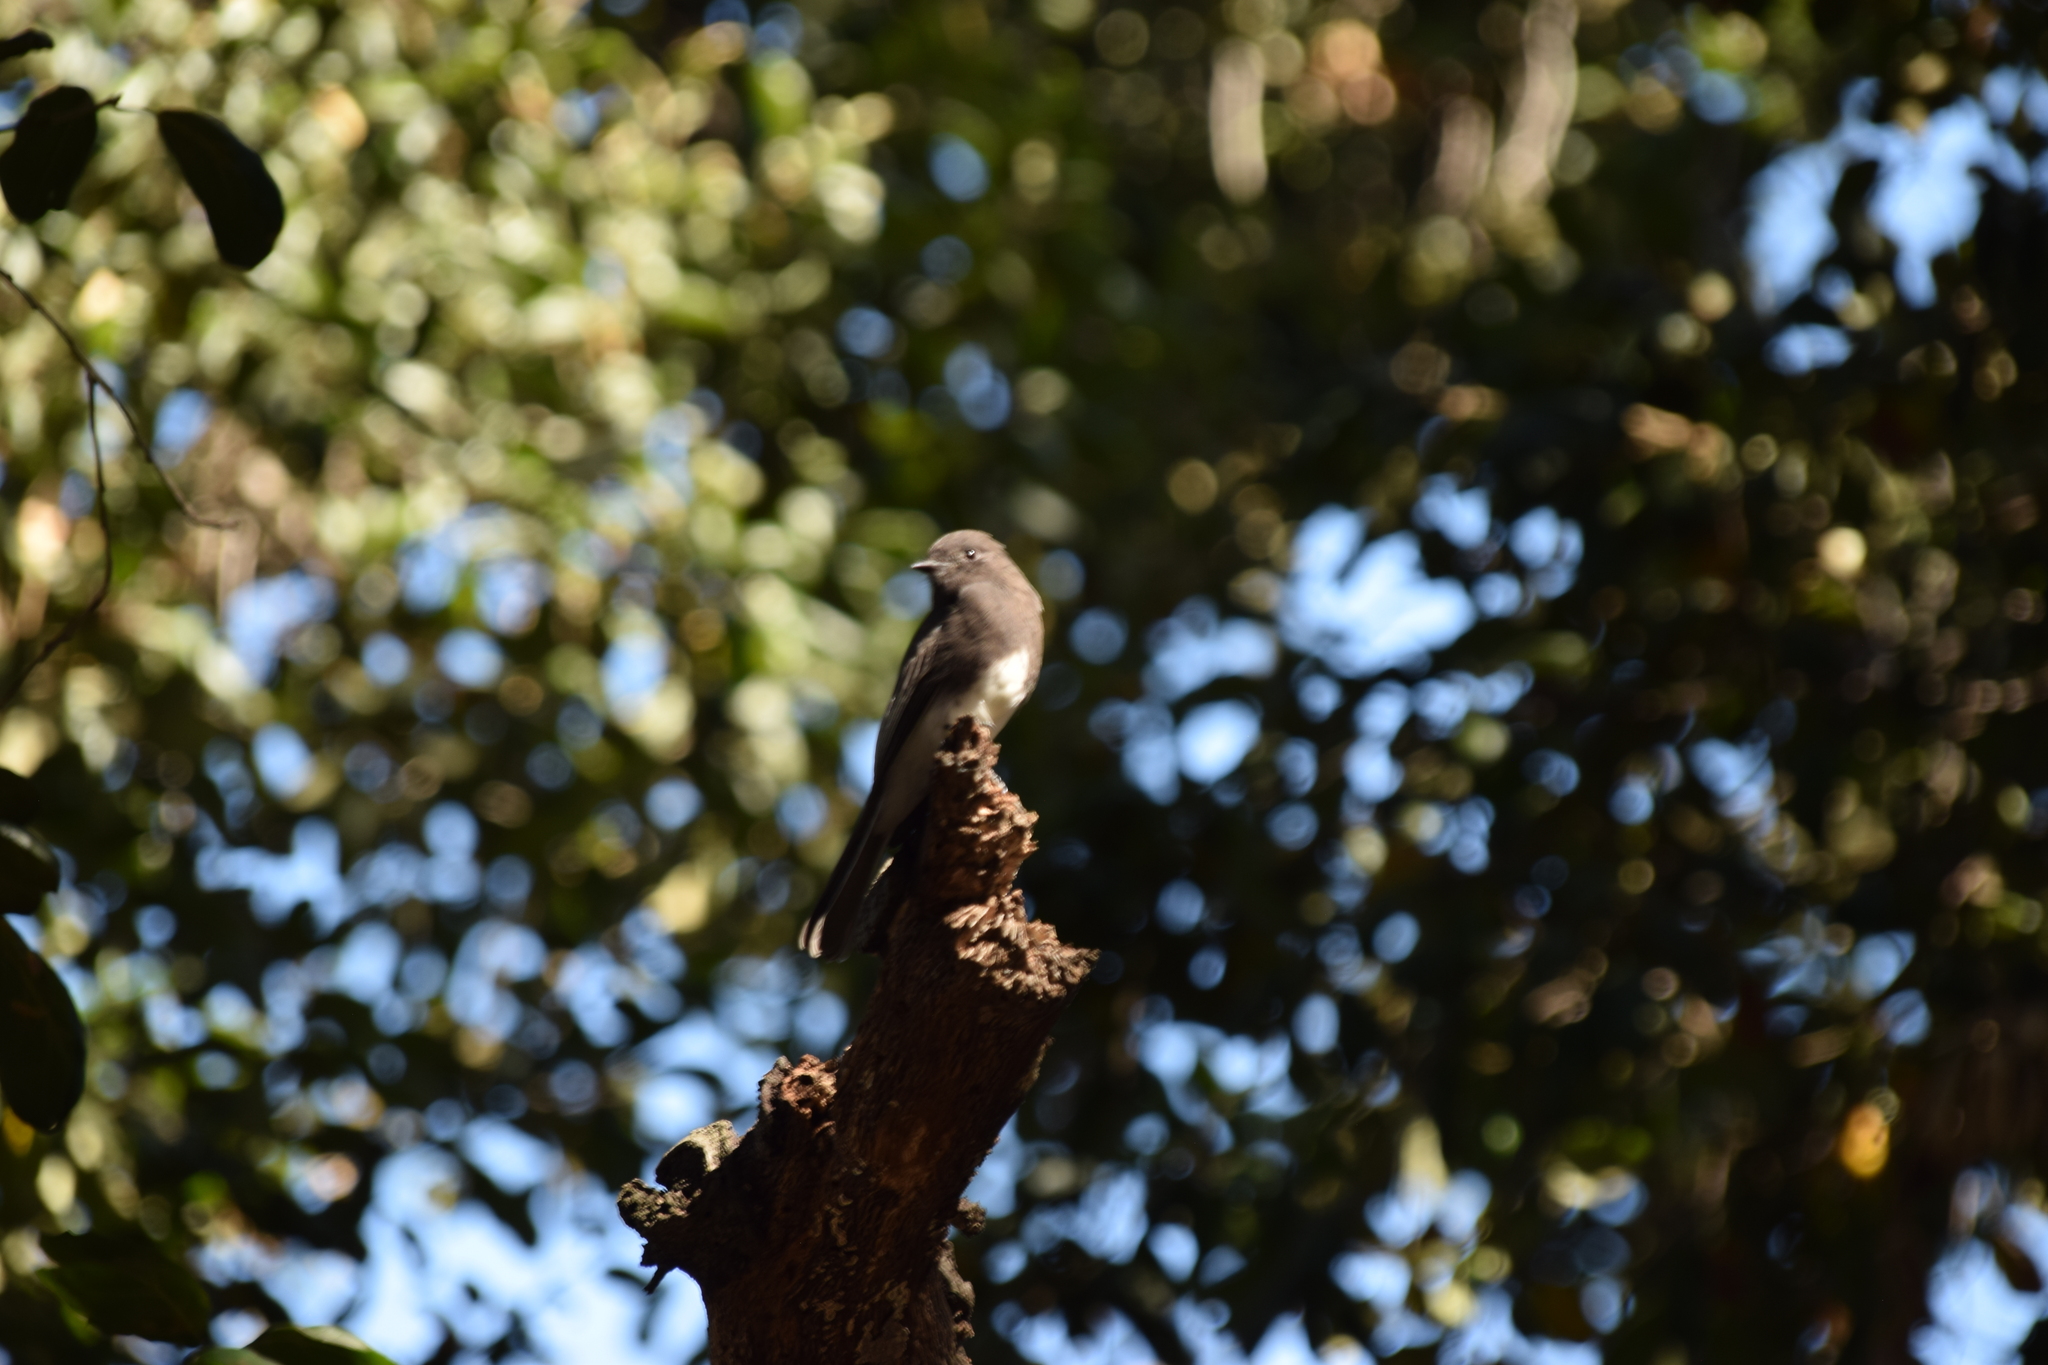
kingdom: Animalia
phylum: Chordata
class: Aves
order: Passeriformes
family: Tyrannidae
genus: Sayornis
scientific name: Sayornis nigricans
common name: Black phoebe
